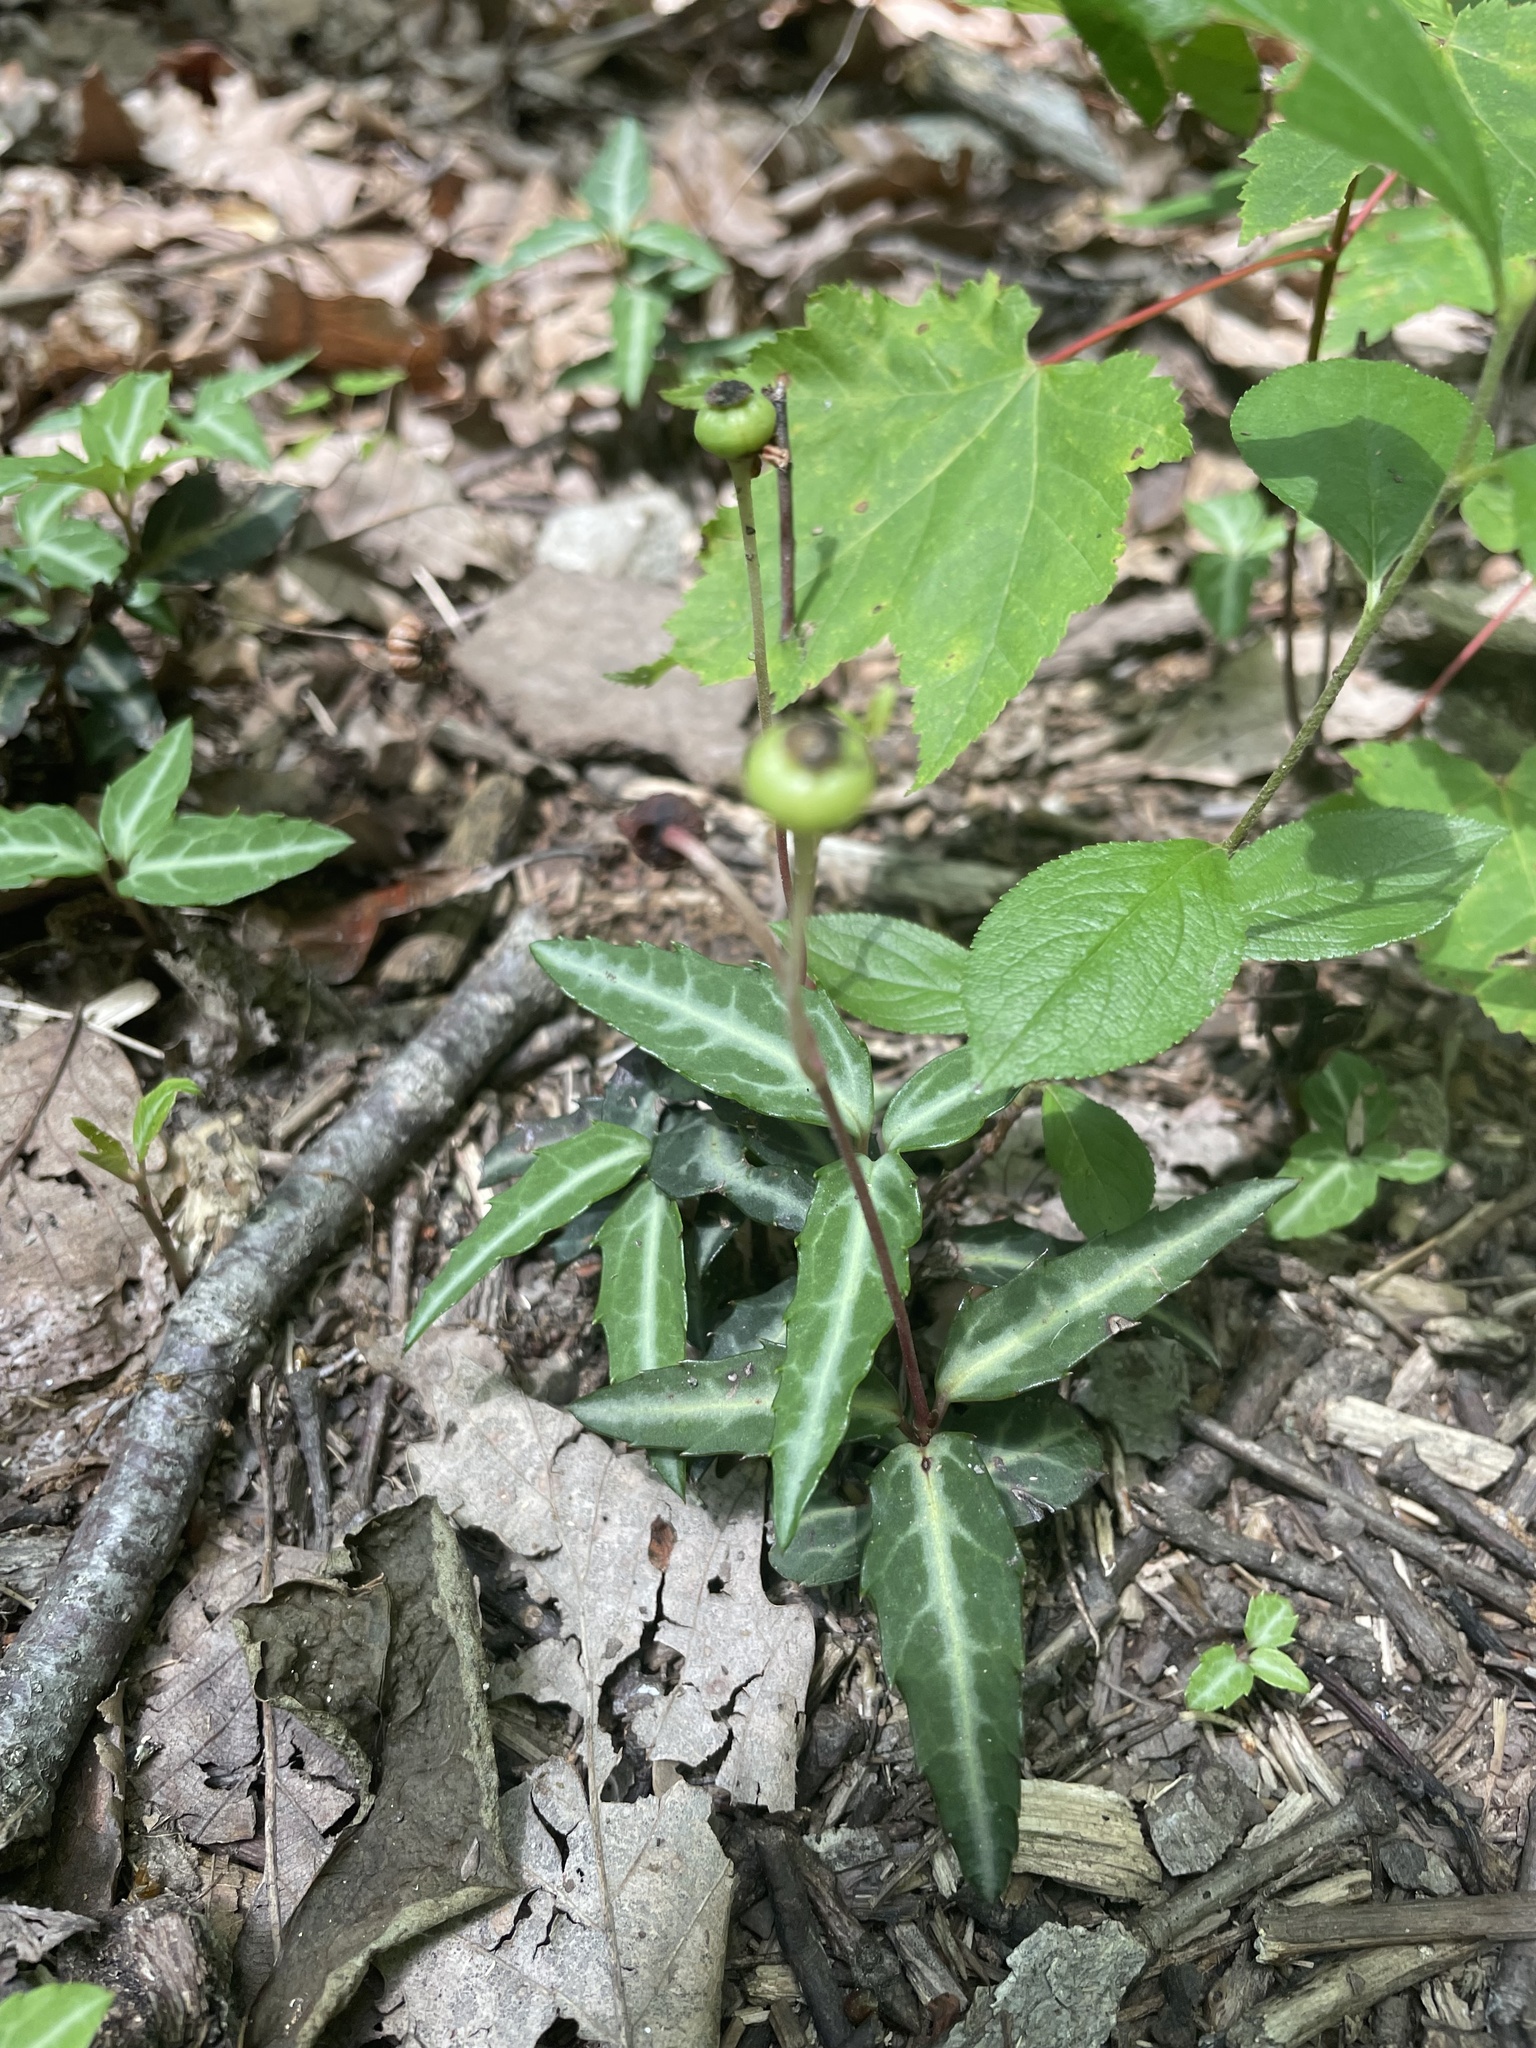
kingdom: Plantae
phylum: Tracheophyta
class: Magnoliopsida
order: Ericales
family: Ericaceae
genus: Chimaphila
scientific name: Chimaphila maculata
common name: Spotted pipsissewa
